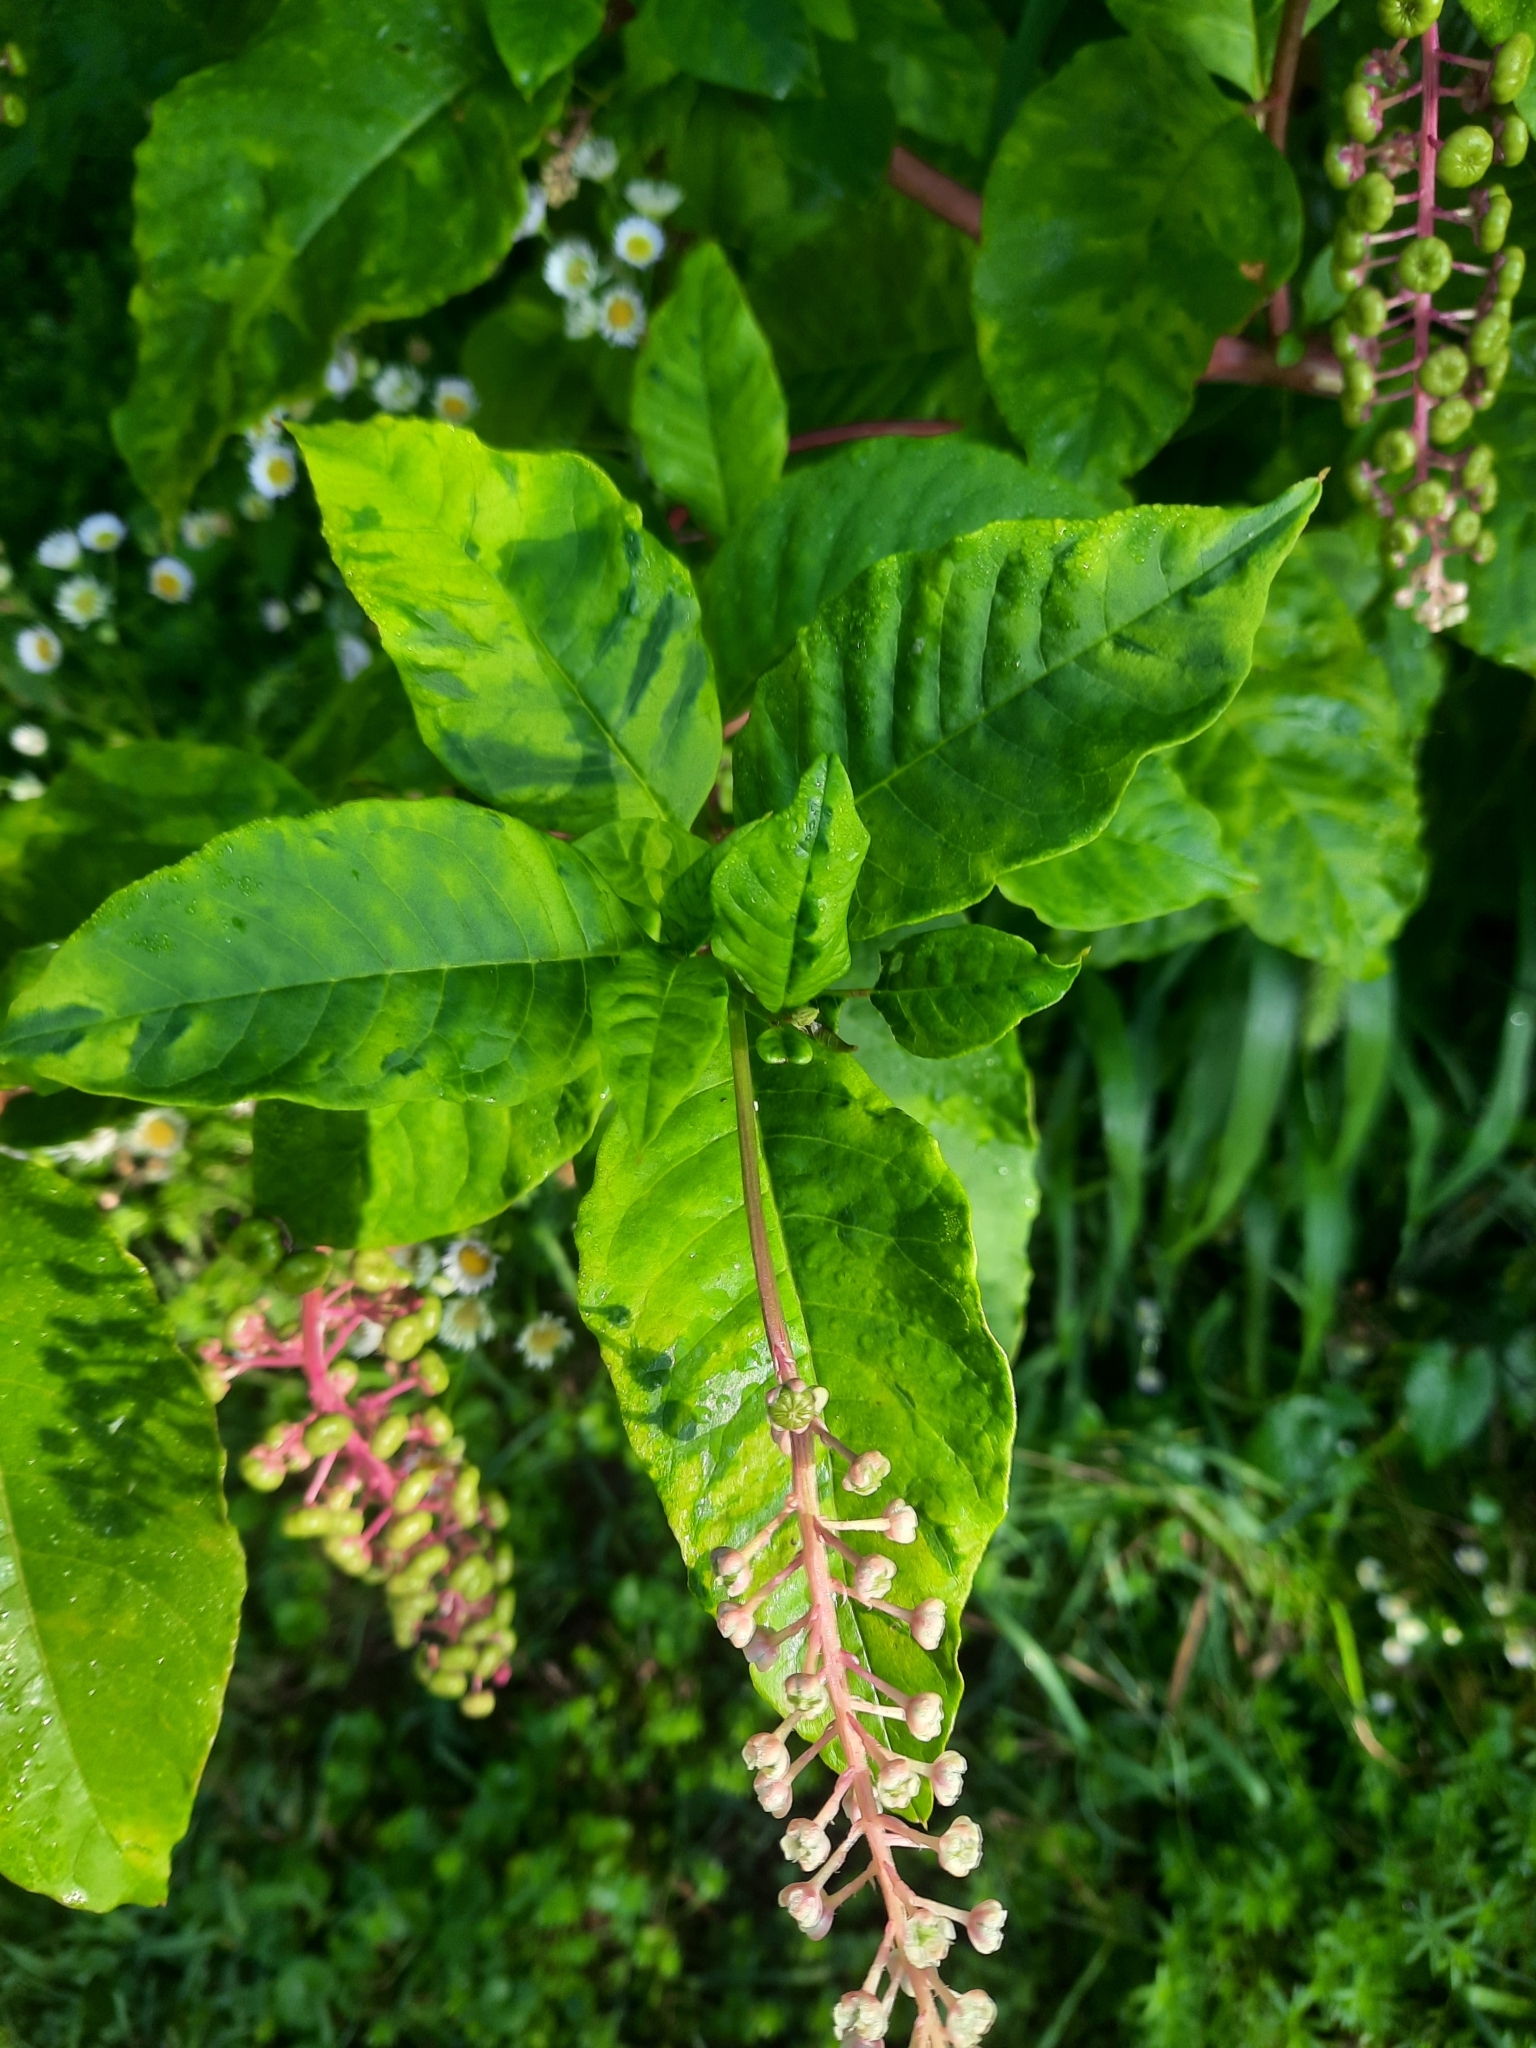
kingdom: Viruses
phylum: Pisuviricota
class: Stelpaviricetes
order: Patatavirales
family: Potyviridae
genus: Potyvirus
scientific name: Potyvirus Pokeweed mosaic virus
